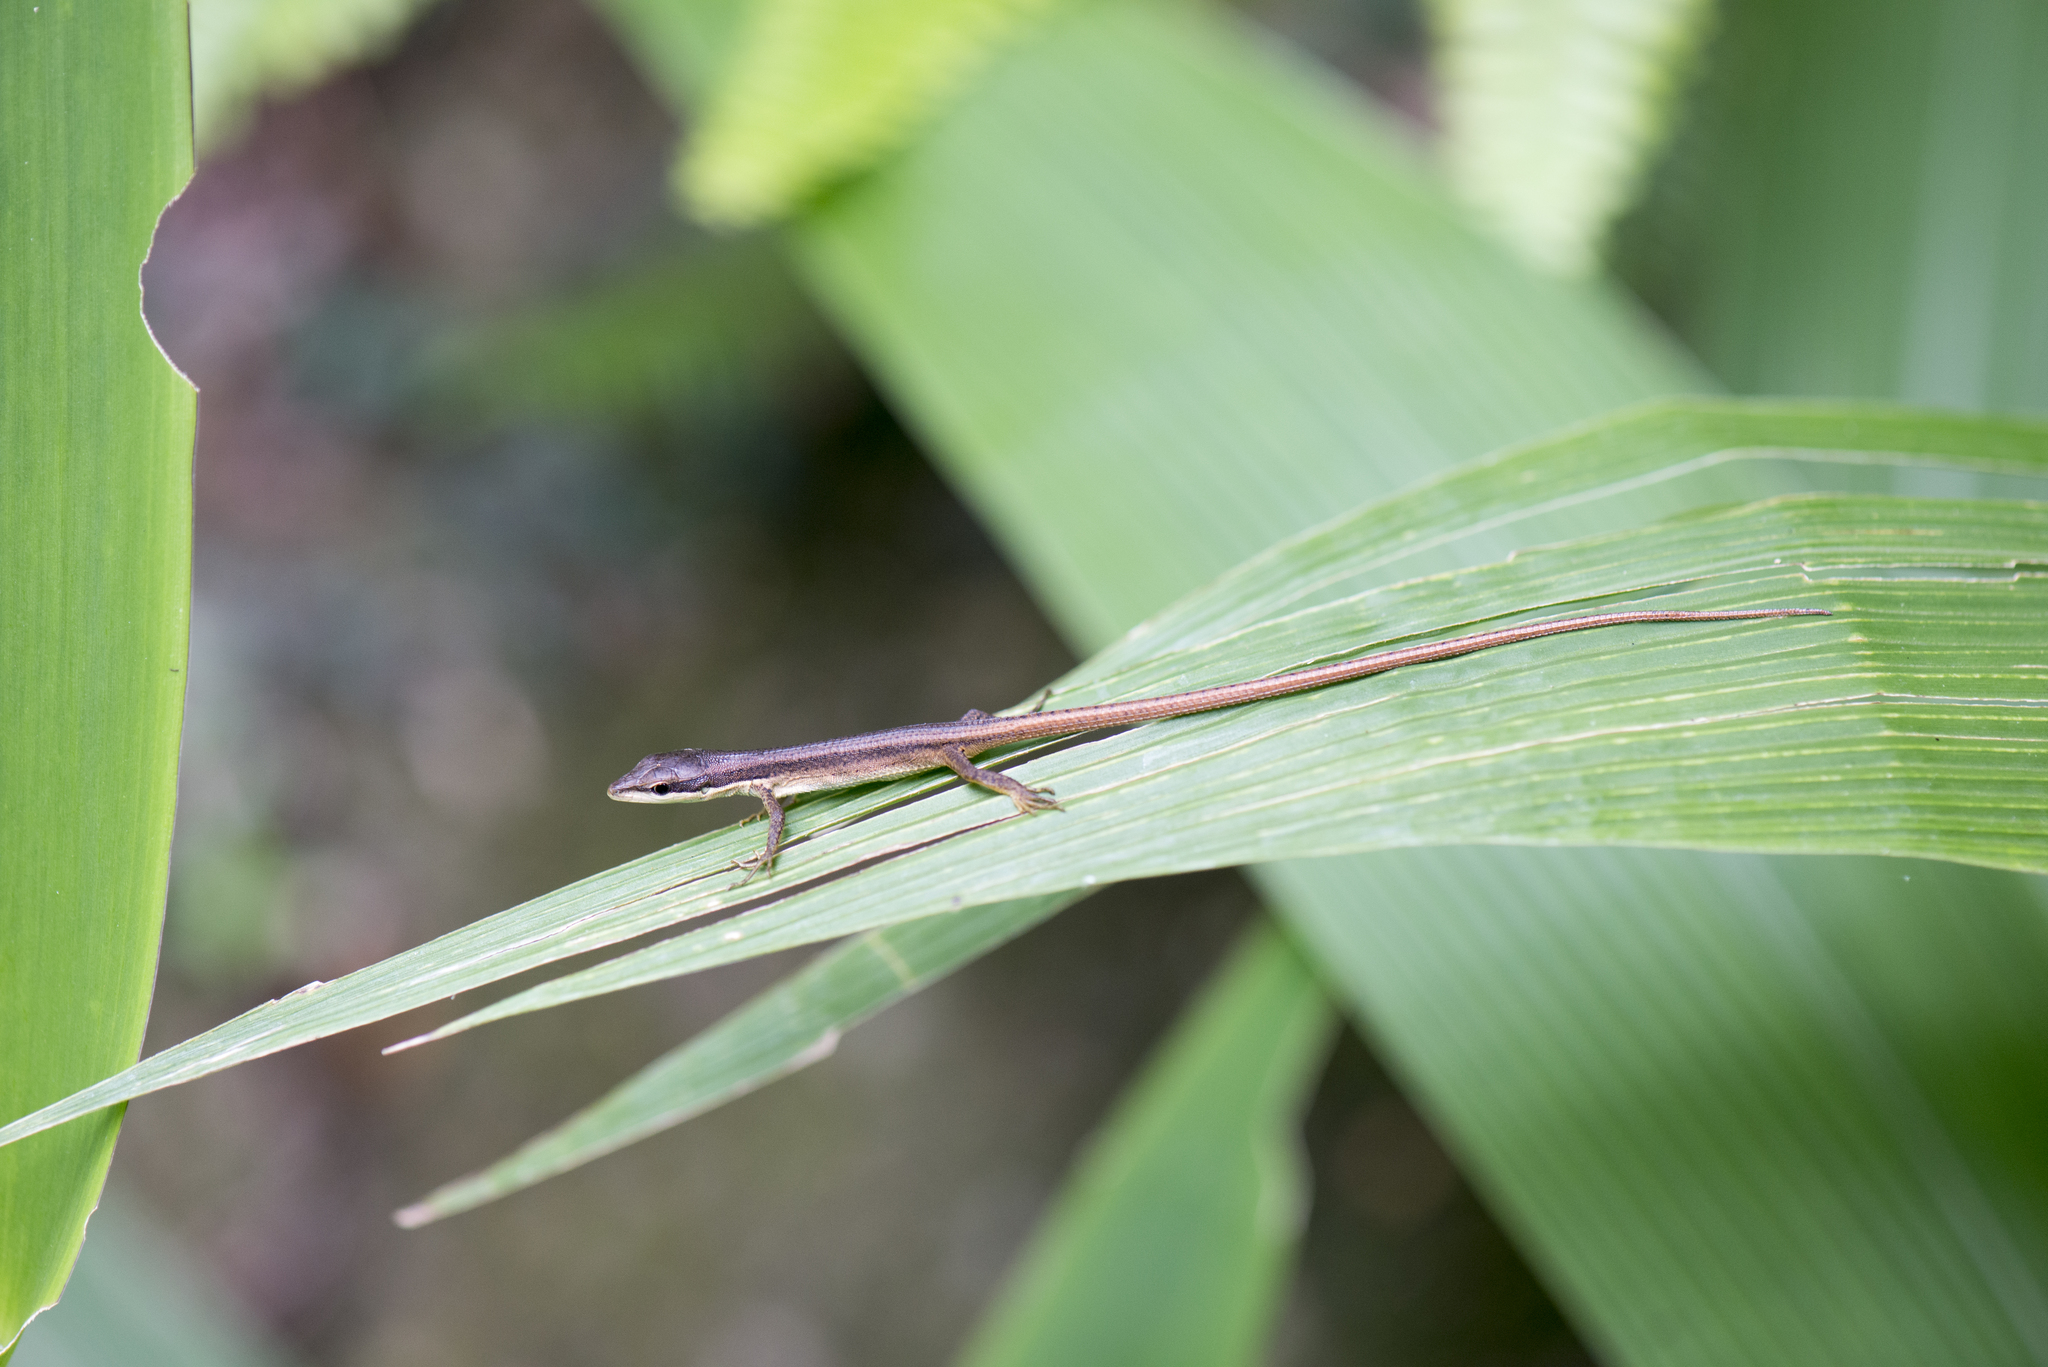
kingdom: Animalia
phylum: Chordata
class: Squamata
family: Lacertidae
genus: Takydromus
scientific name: Takydromus kuehnei
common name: Kuhne’s grass lizard
